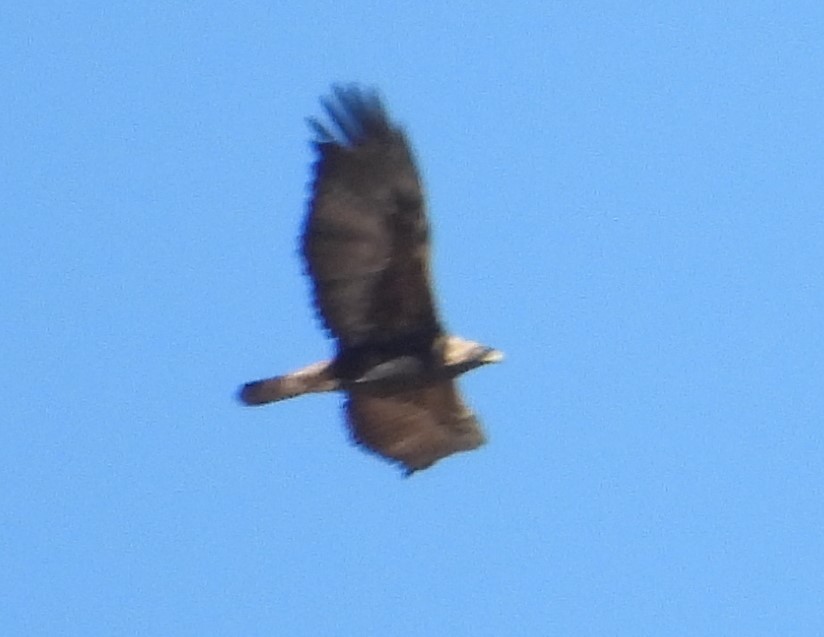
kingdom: Animalia
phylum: Chordata
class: Aves
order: Accipitriformes
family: Accipitridae
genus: Aquila
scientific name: Aquila chrysaetos
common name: Golden eagle
